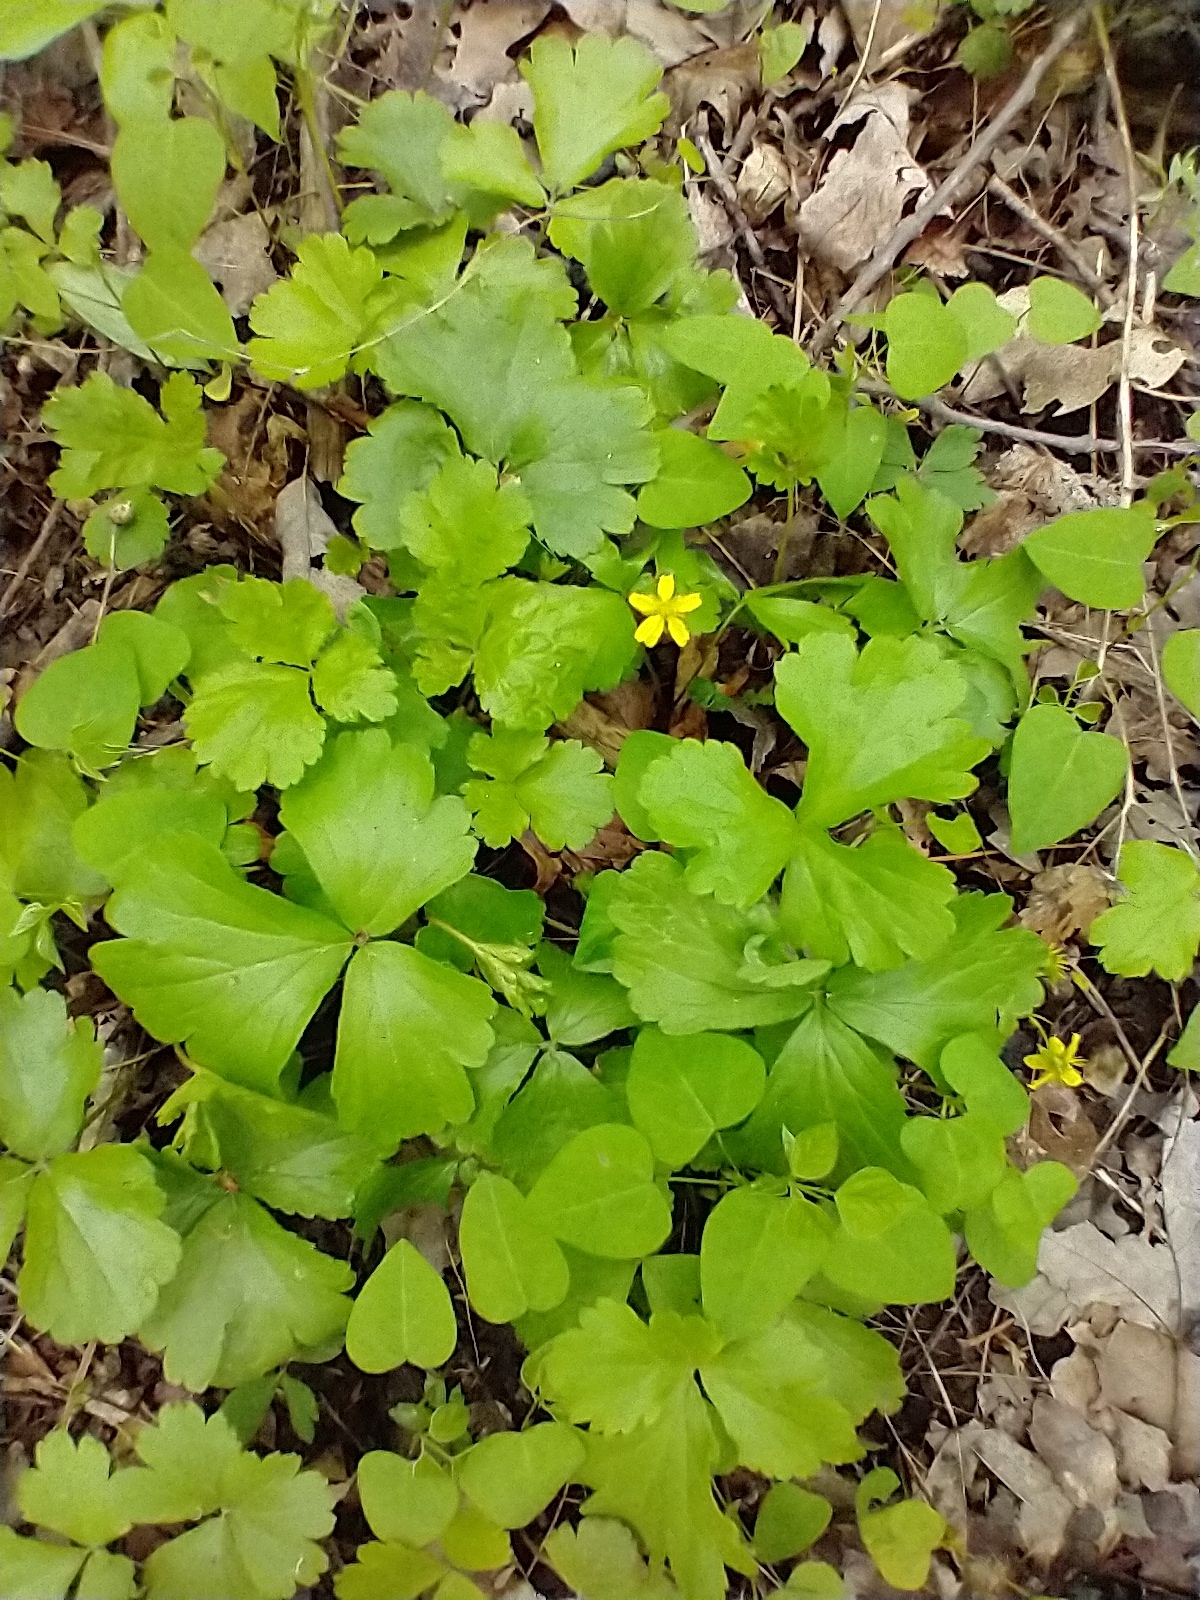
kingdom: Plantae
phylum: Tracheophyta
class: Magnoliopsida
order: Rosales
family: Rosaceae
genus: Geum
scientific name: Geum fragarioides
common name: Appalachian barren strawberry
